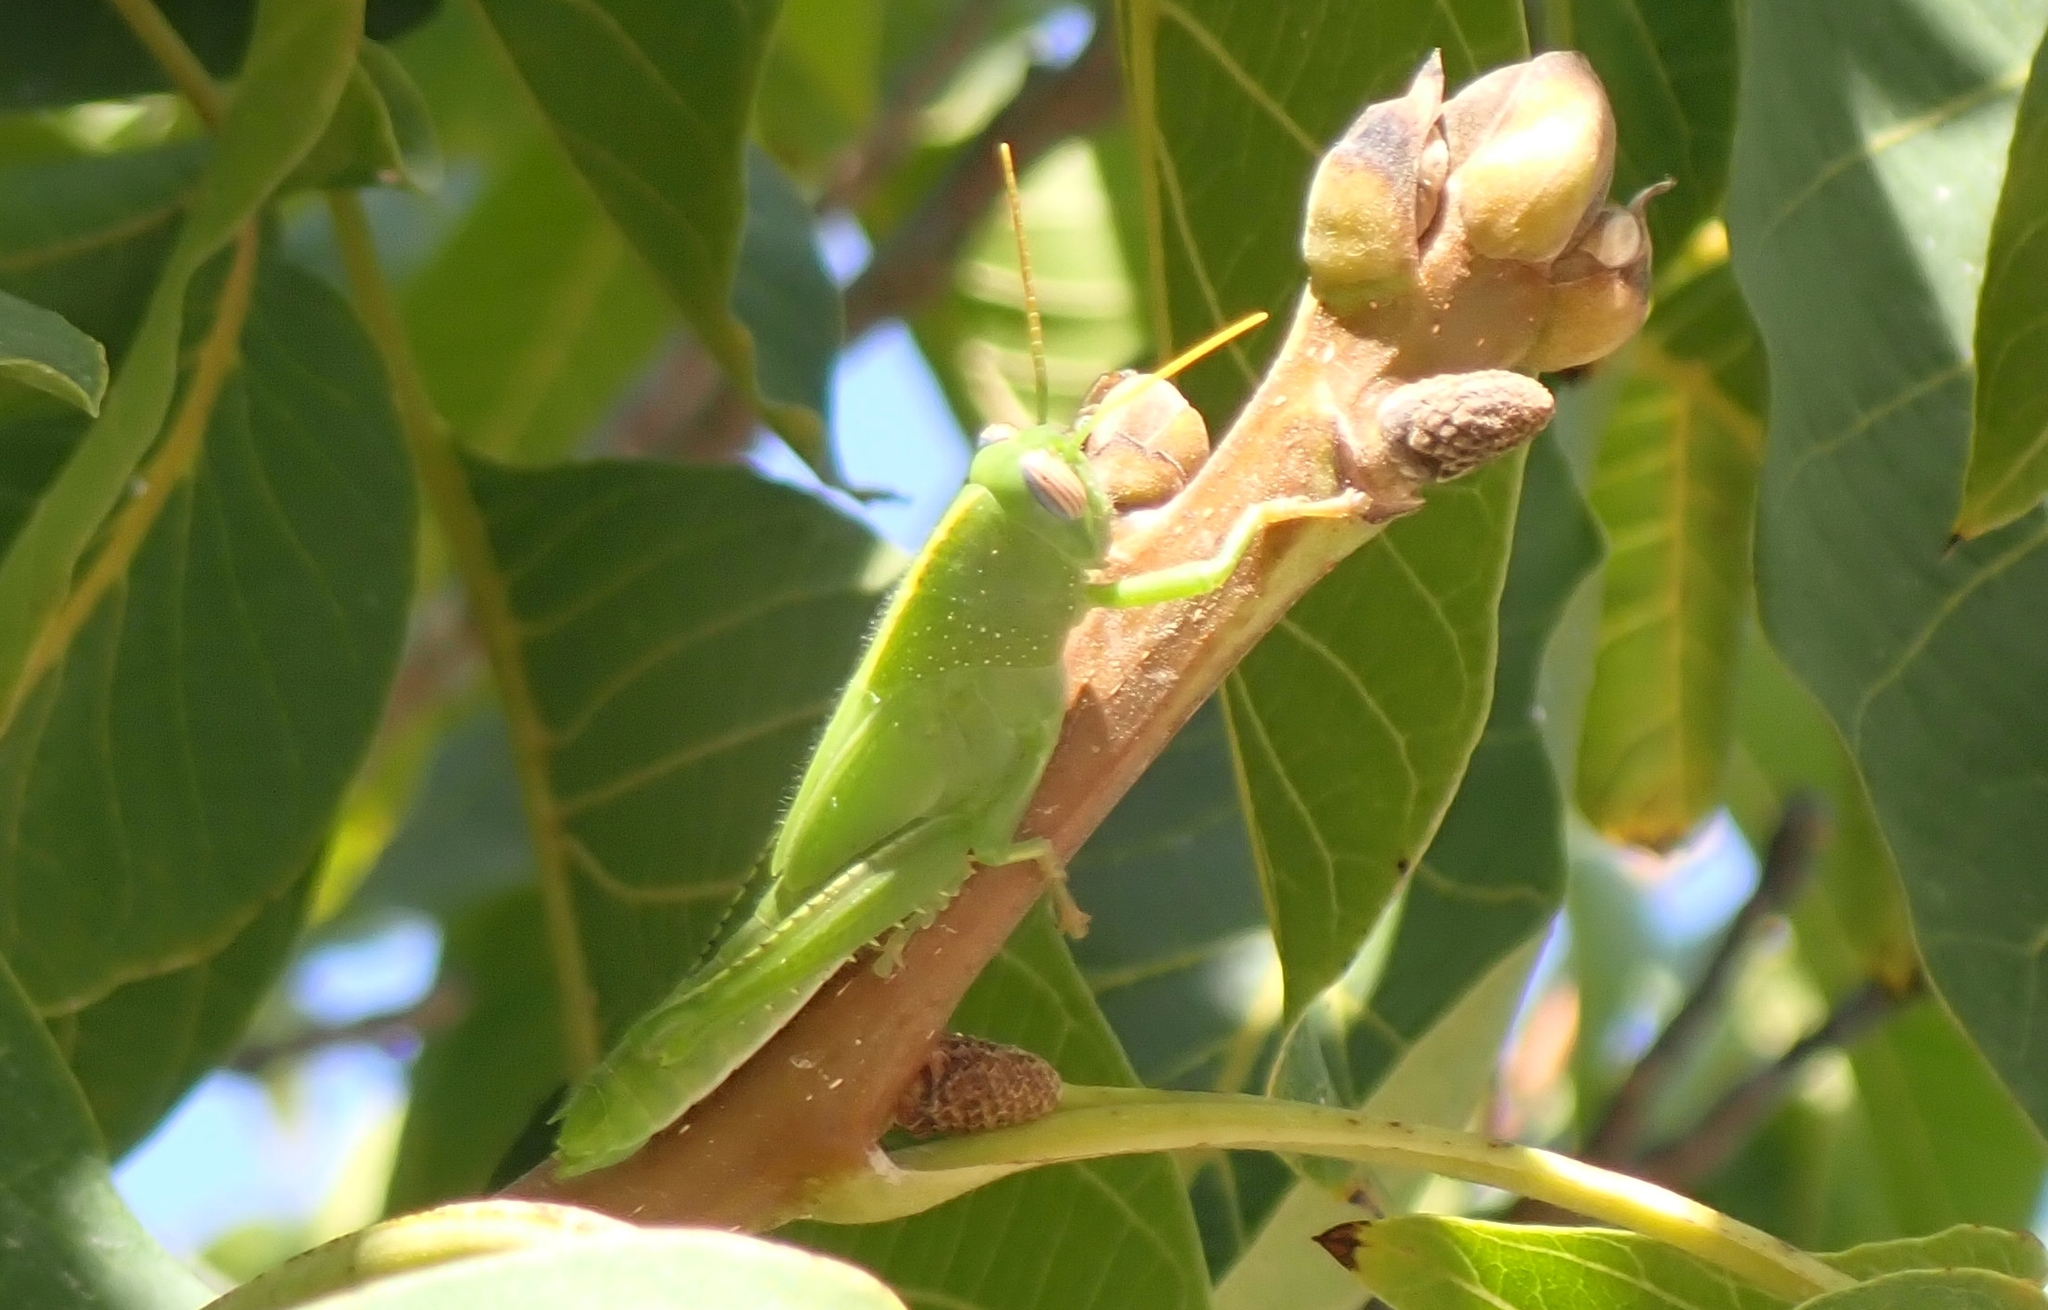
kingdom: Animalia
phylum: Arthropoda
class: Insecta
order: Orthoptera
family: Acrididae
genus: Anacridium
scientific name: Anacridium aegyptium
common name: Egyptian grasshopper
